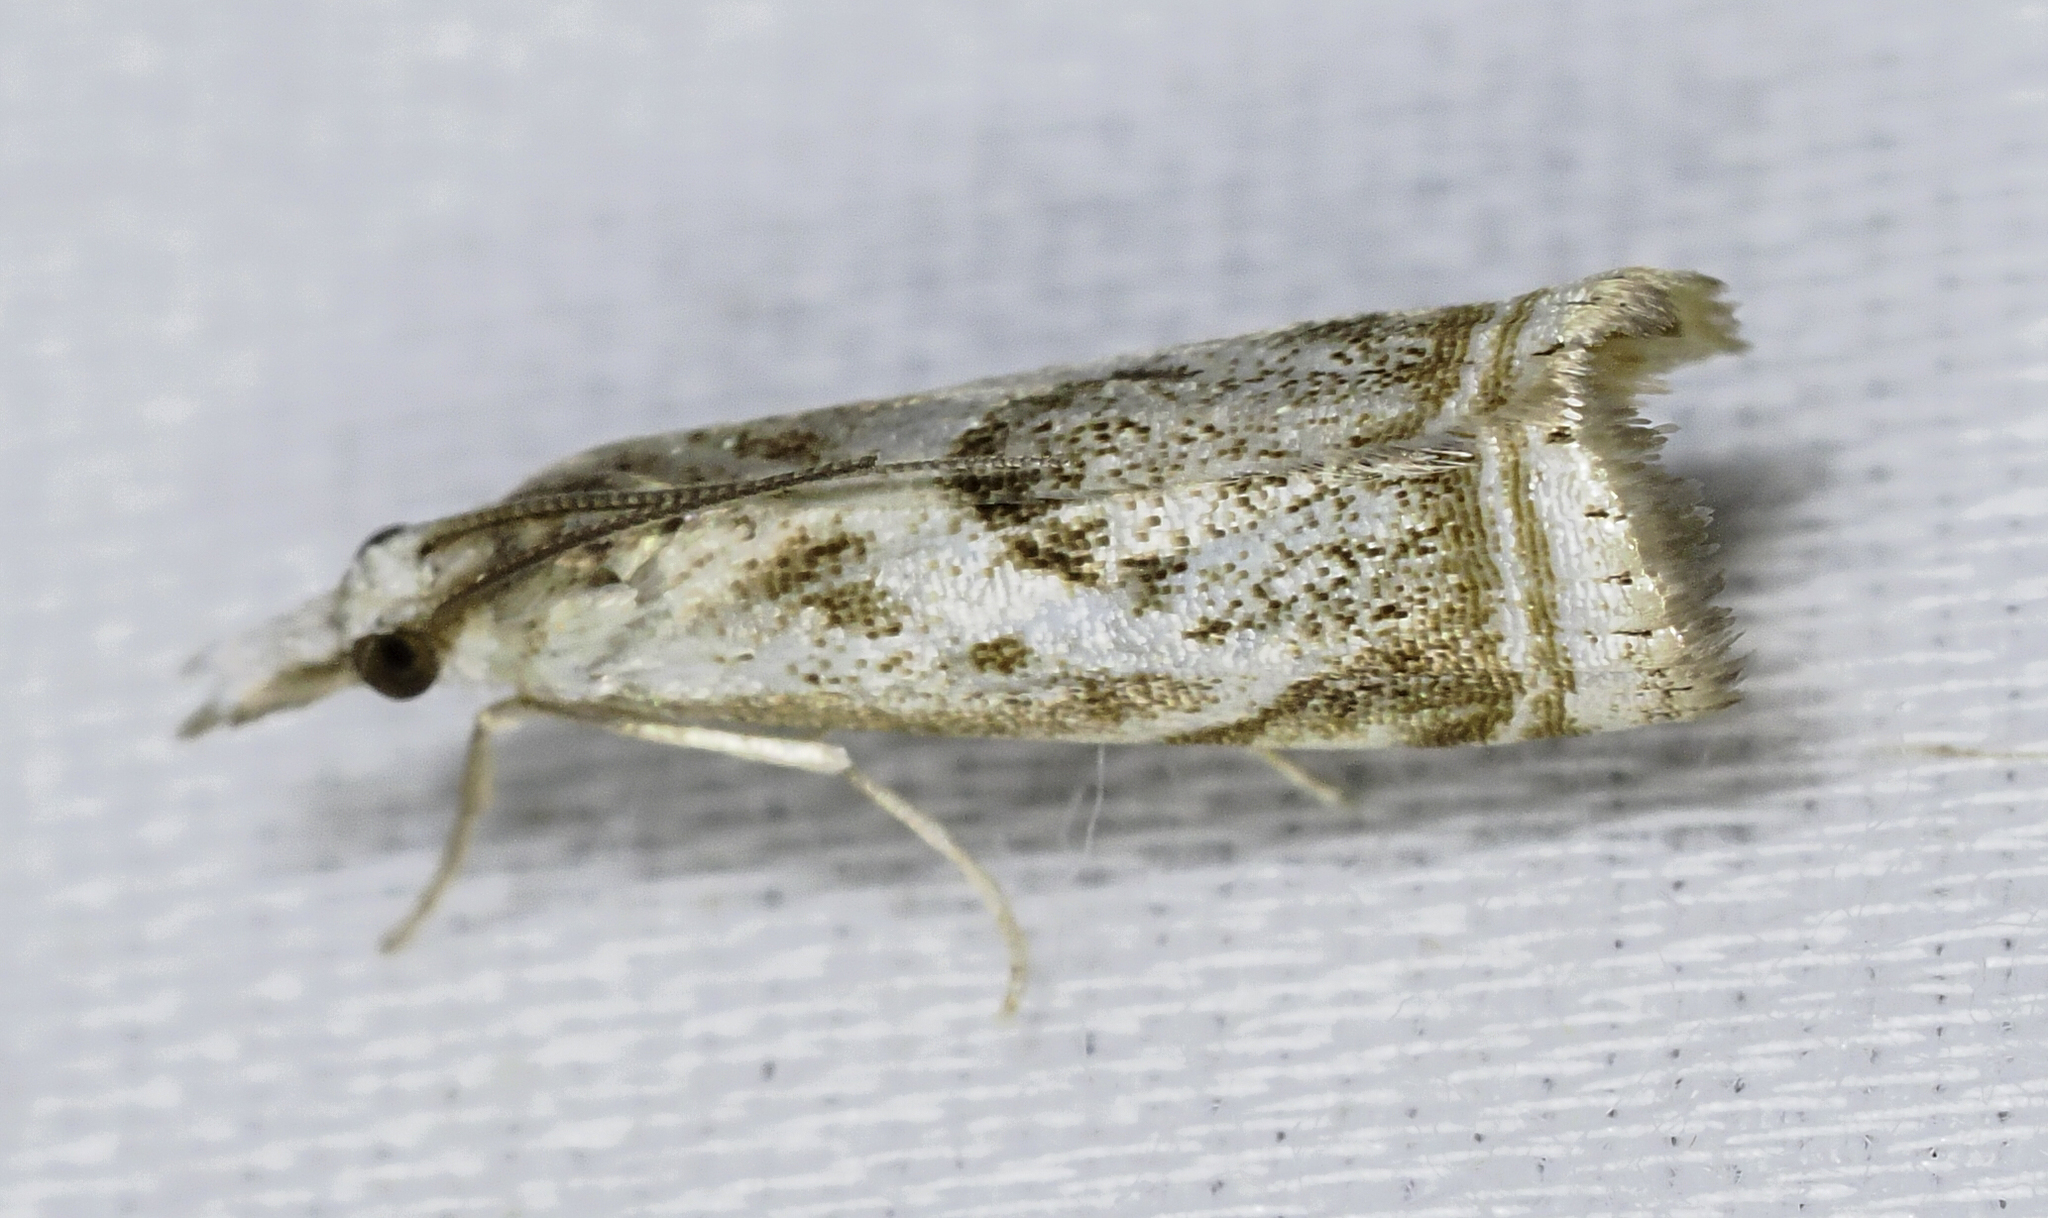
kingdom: Animalia
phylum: Arthropoda
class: Insecta
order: Lepidoptera
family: Crambidae
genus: Microcrambus
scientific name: Microcrambus elegans
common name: Elegant grass-veneer
